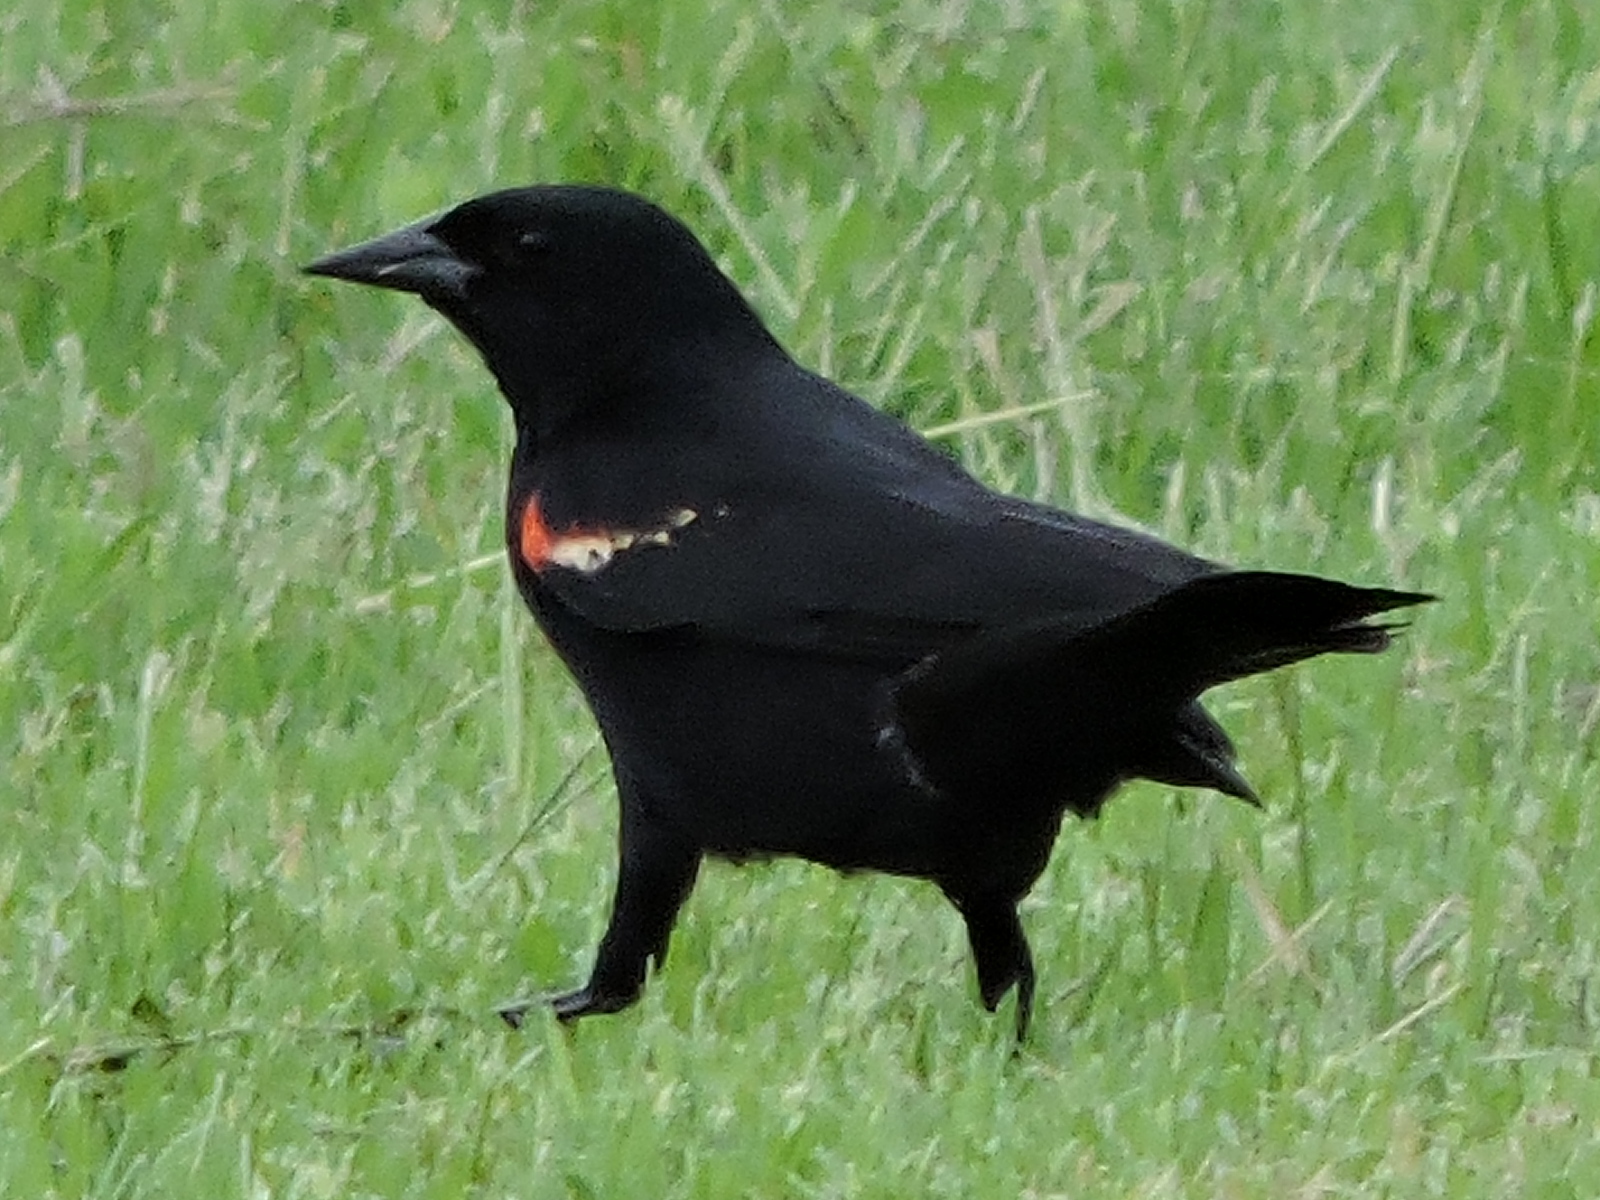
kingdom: Animalia
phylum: Chordata
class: Aves
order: Passeriformes
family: Icteridae
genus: Agelaius
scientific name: Agelaius phoeniceus
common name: Red-winged blackbird
